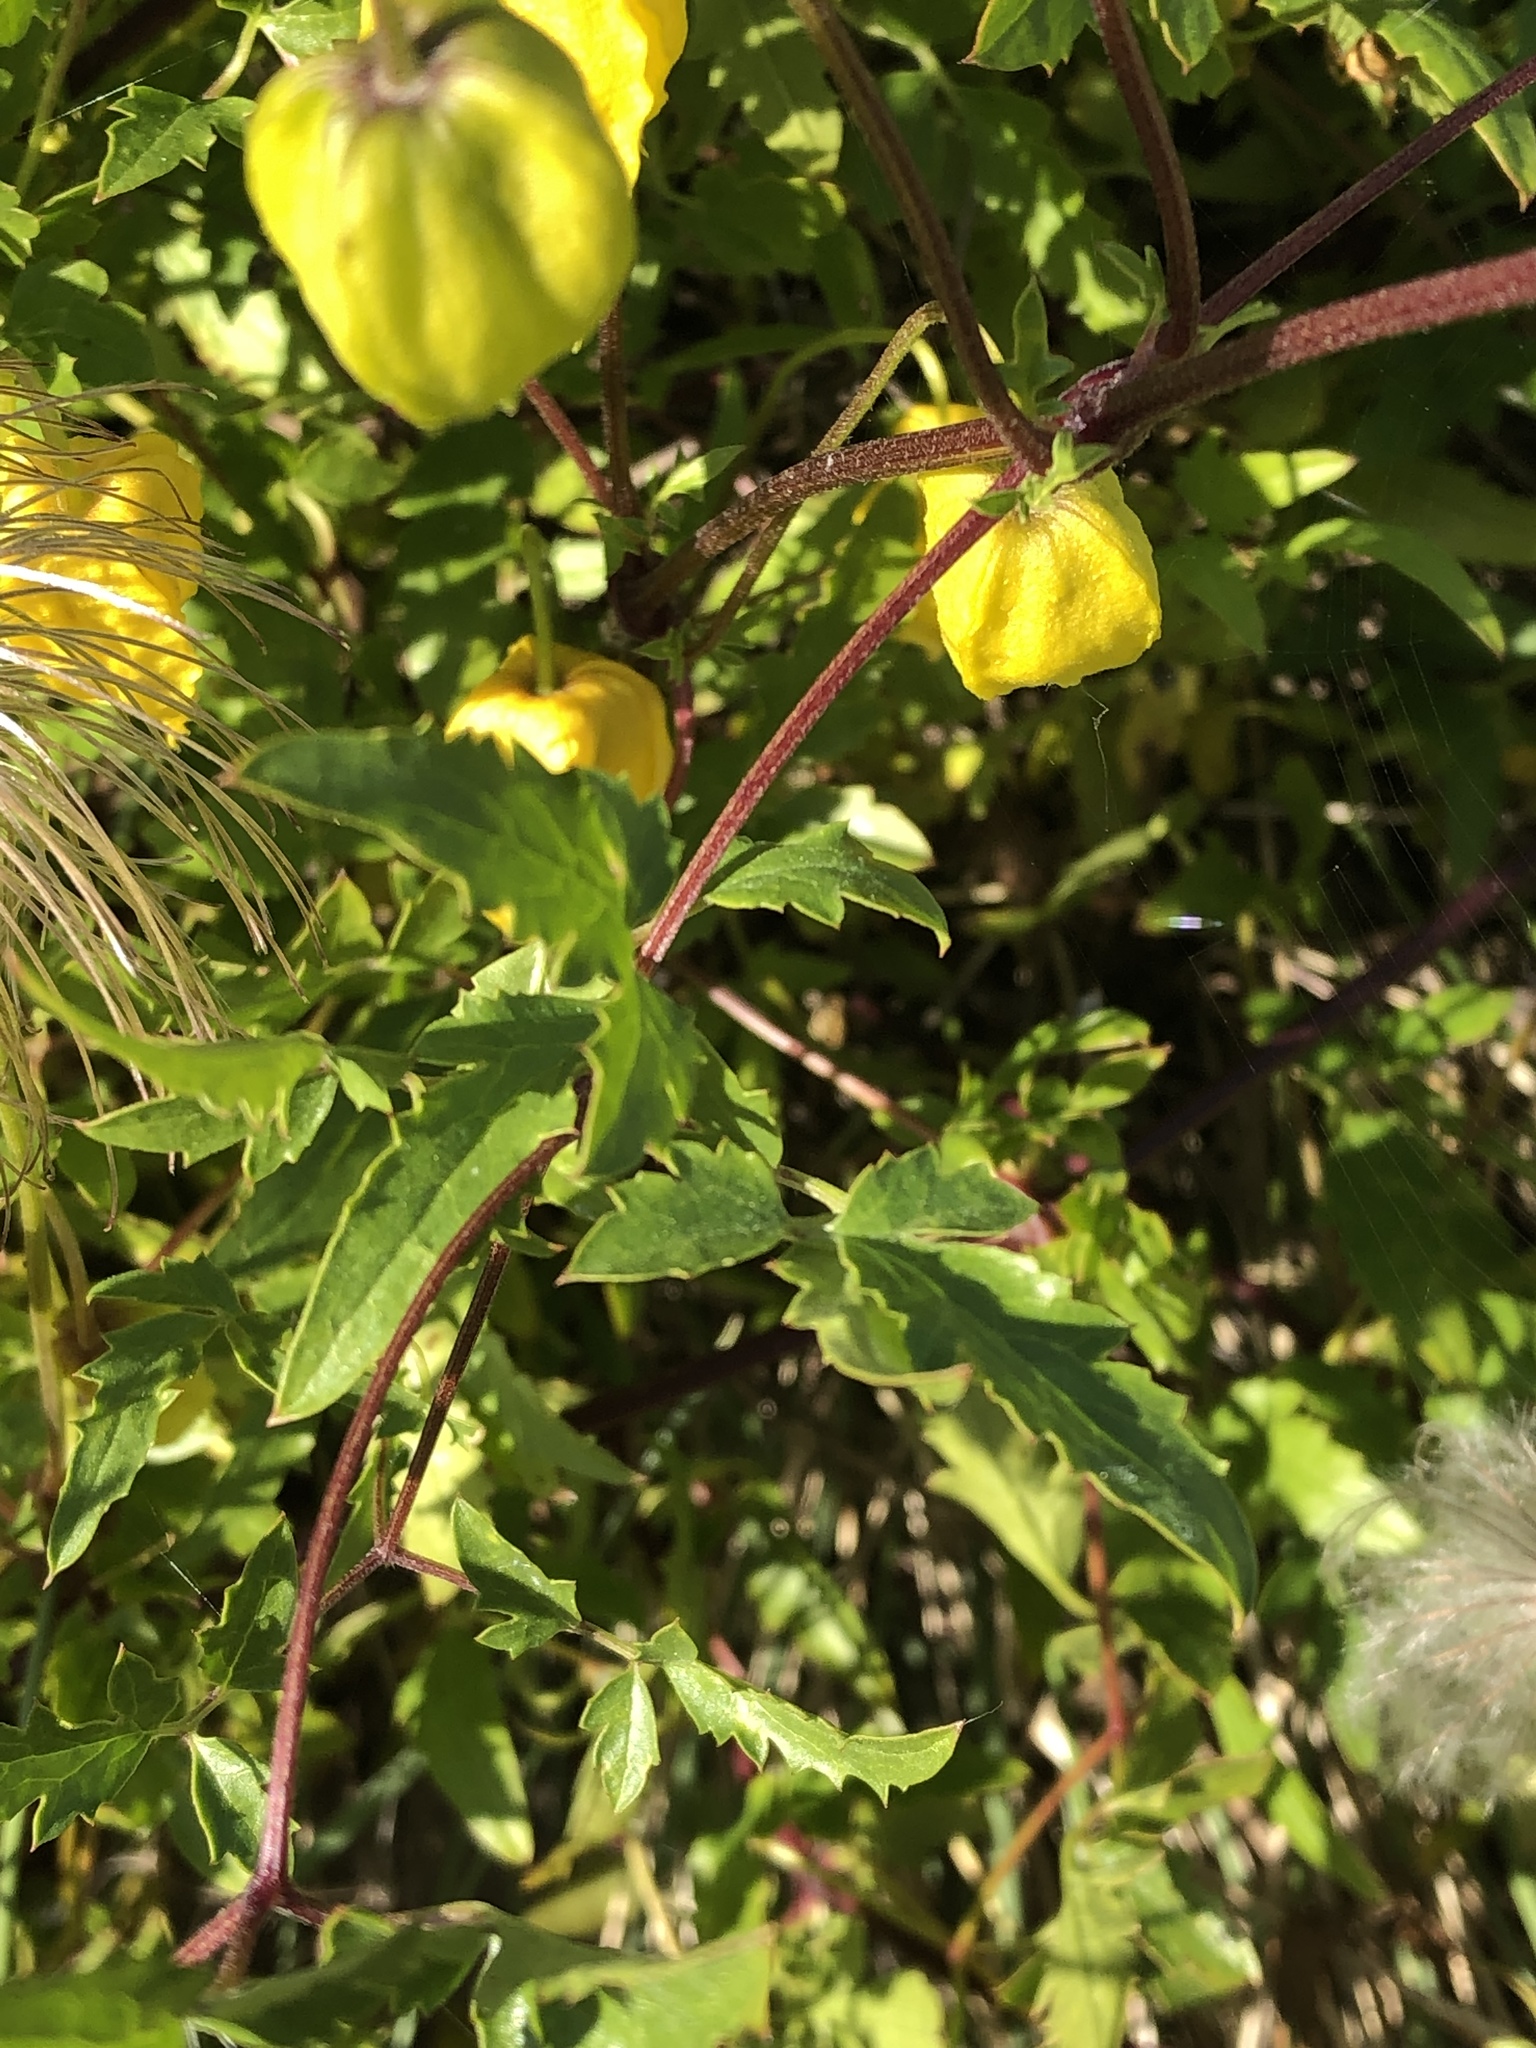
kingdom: Plantae
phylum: Tracheophyta
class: Magnoliopsida
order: Ranunculales
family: Ranunculaceae
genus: Clematis
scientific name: Clematis tangutica
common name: Orange-peel clematis
